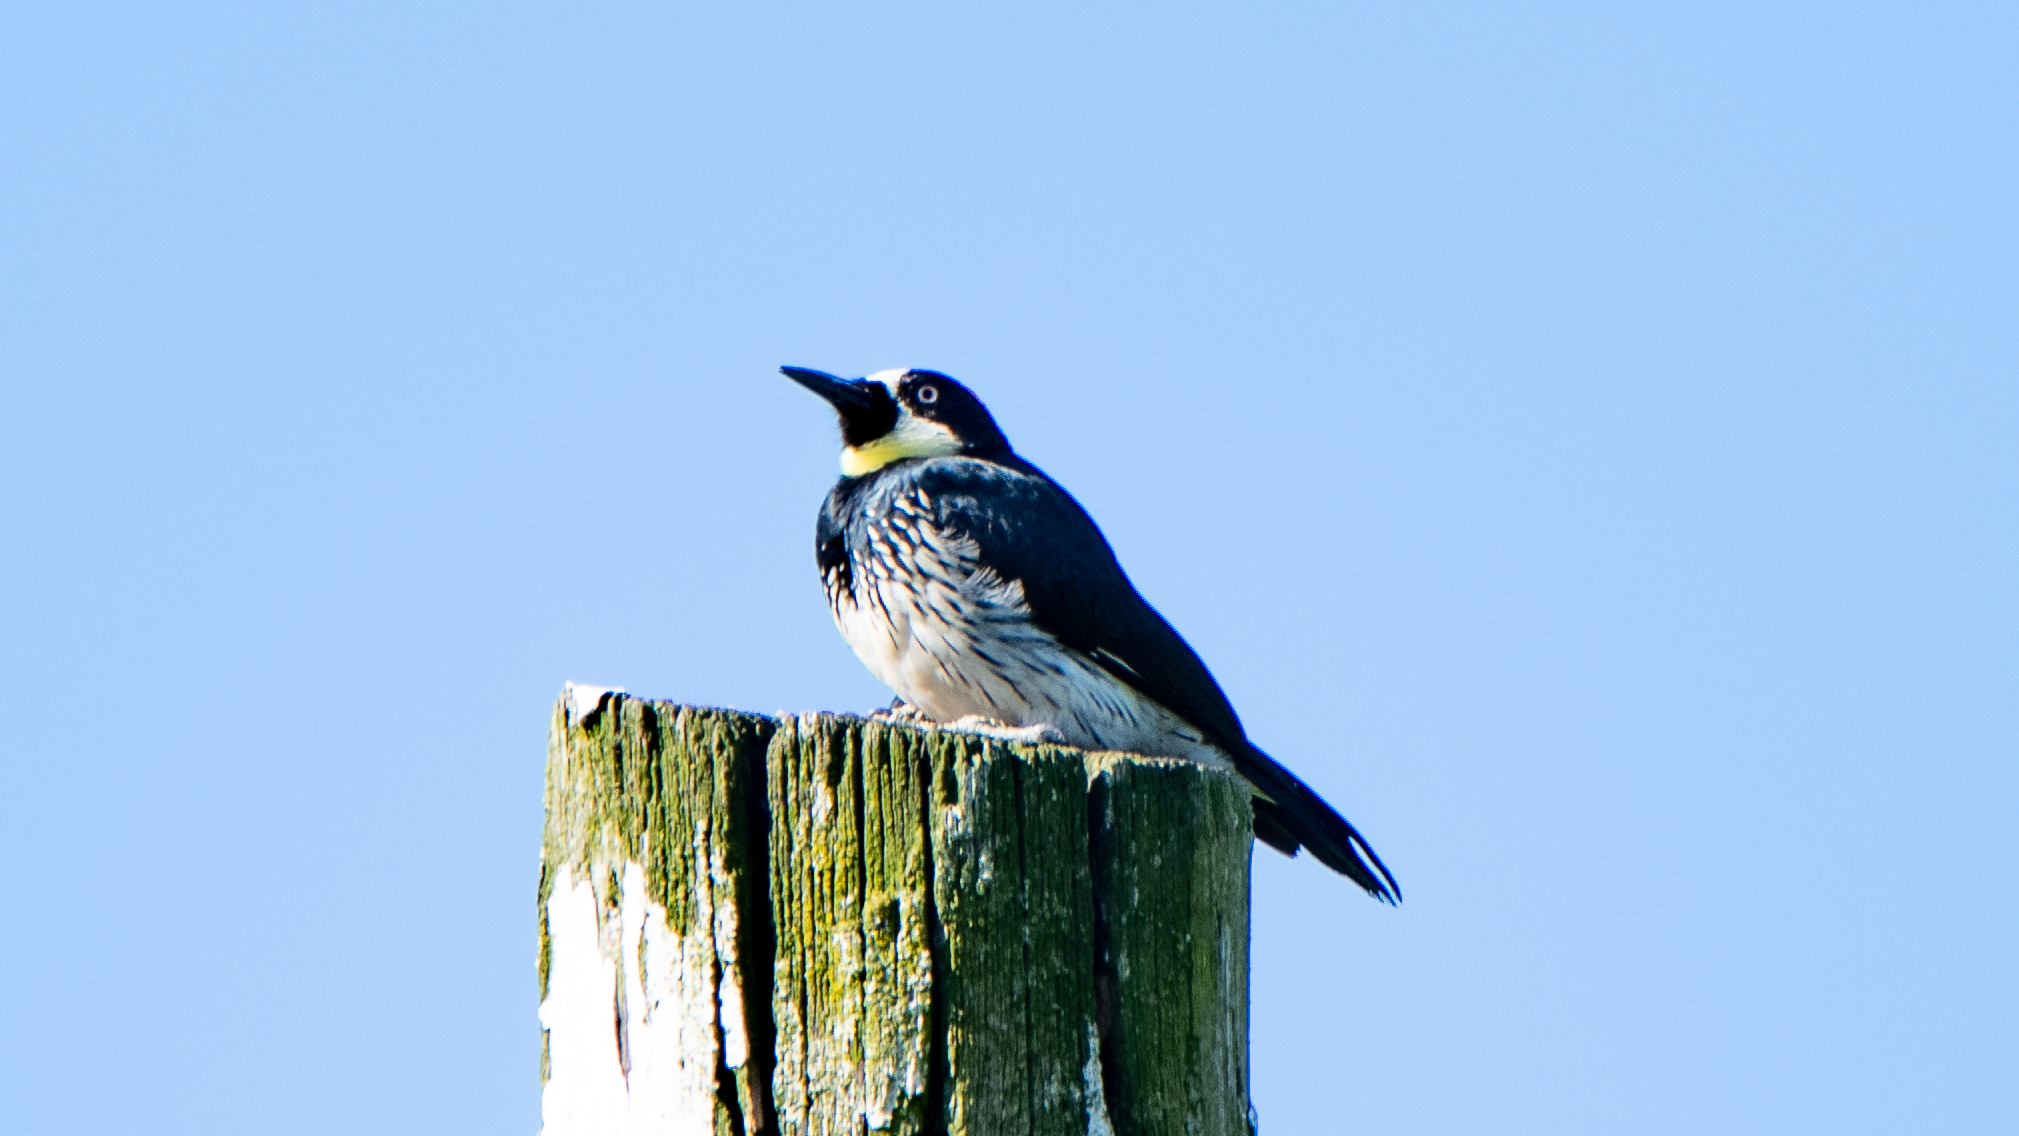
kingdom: Animalia
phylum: Chordata
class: Aves
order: Piciformes
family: Picidae
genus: Melanerpes
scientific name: Melanerpes formicivorus
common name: Acorn woodpecker
